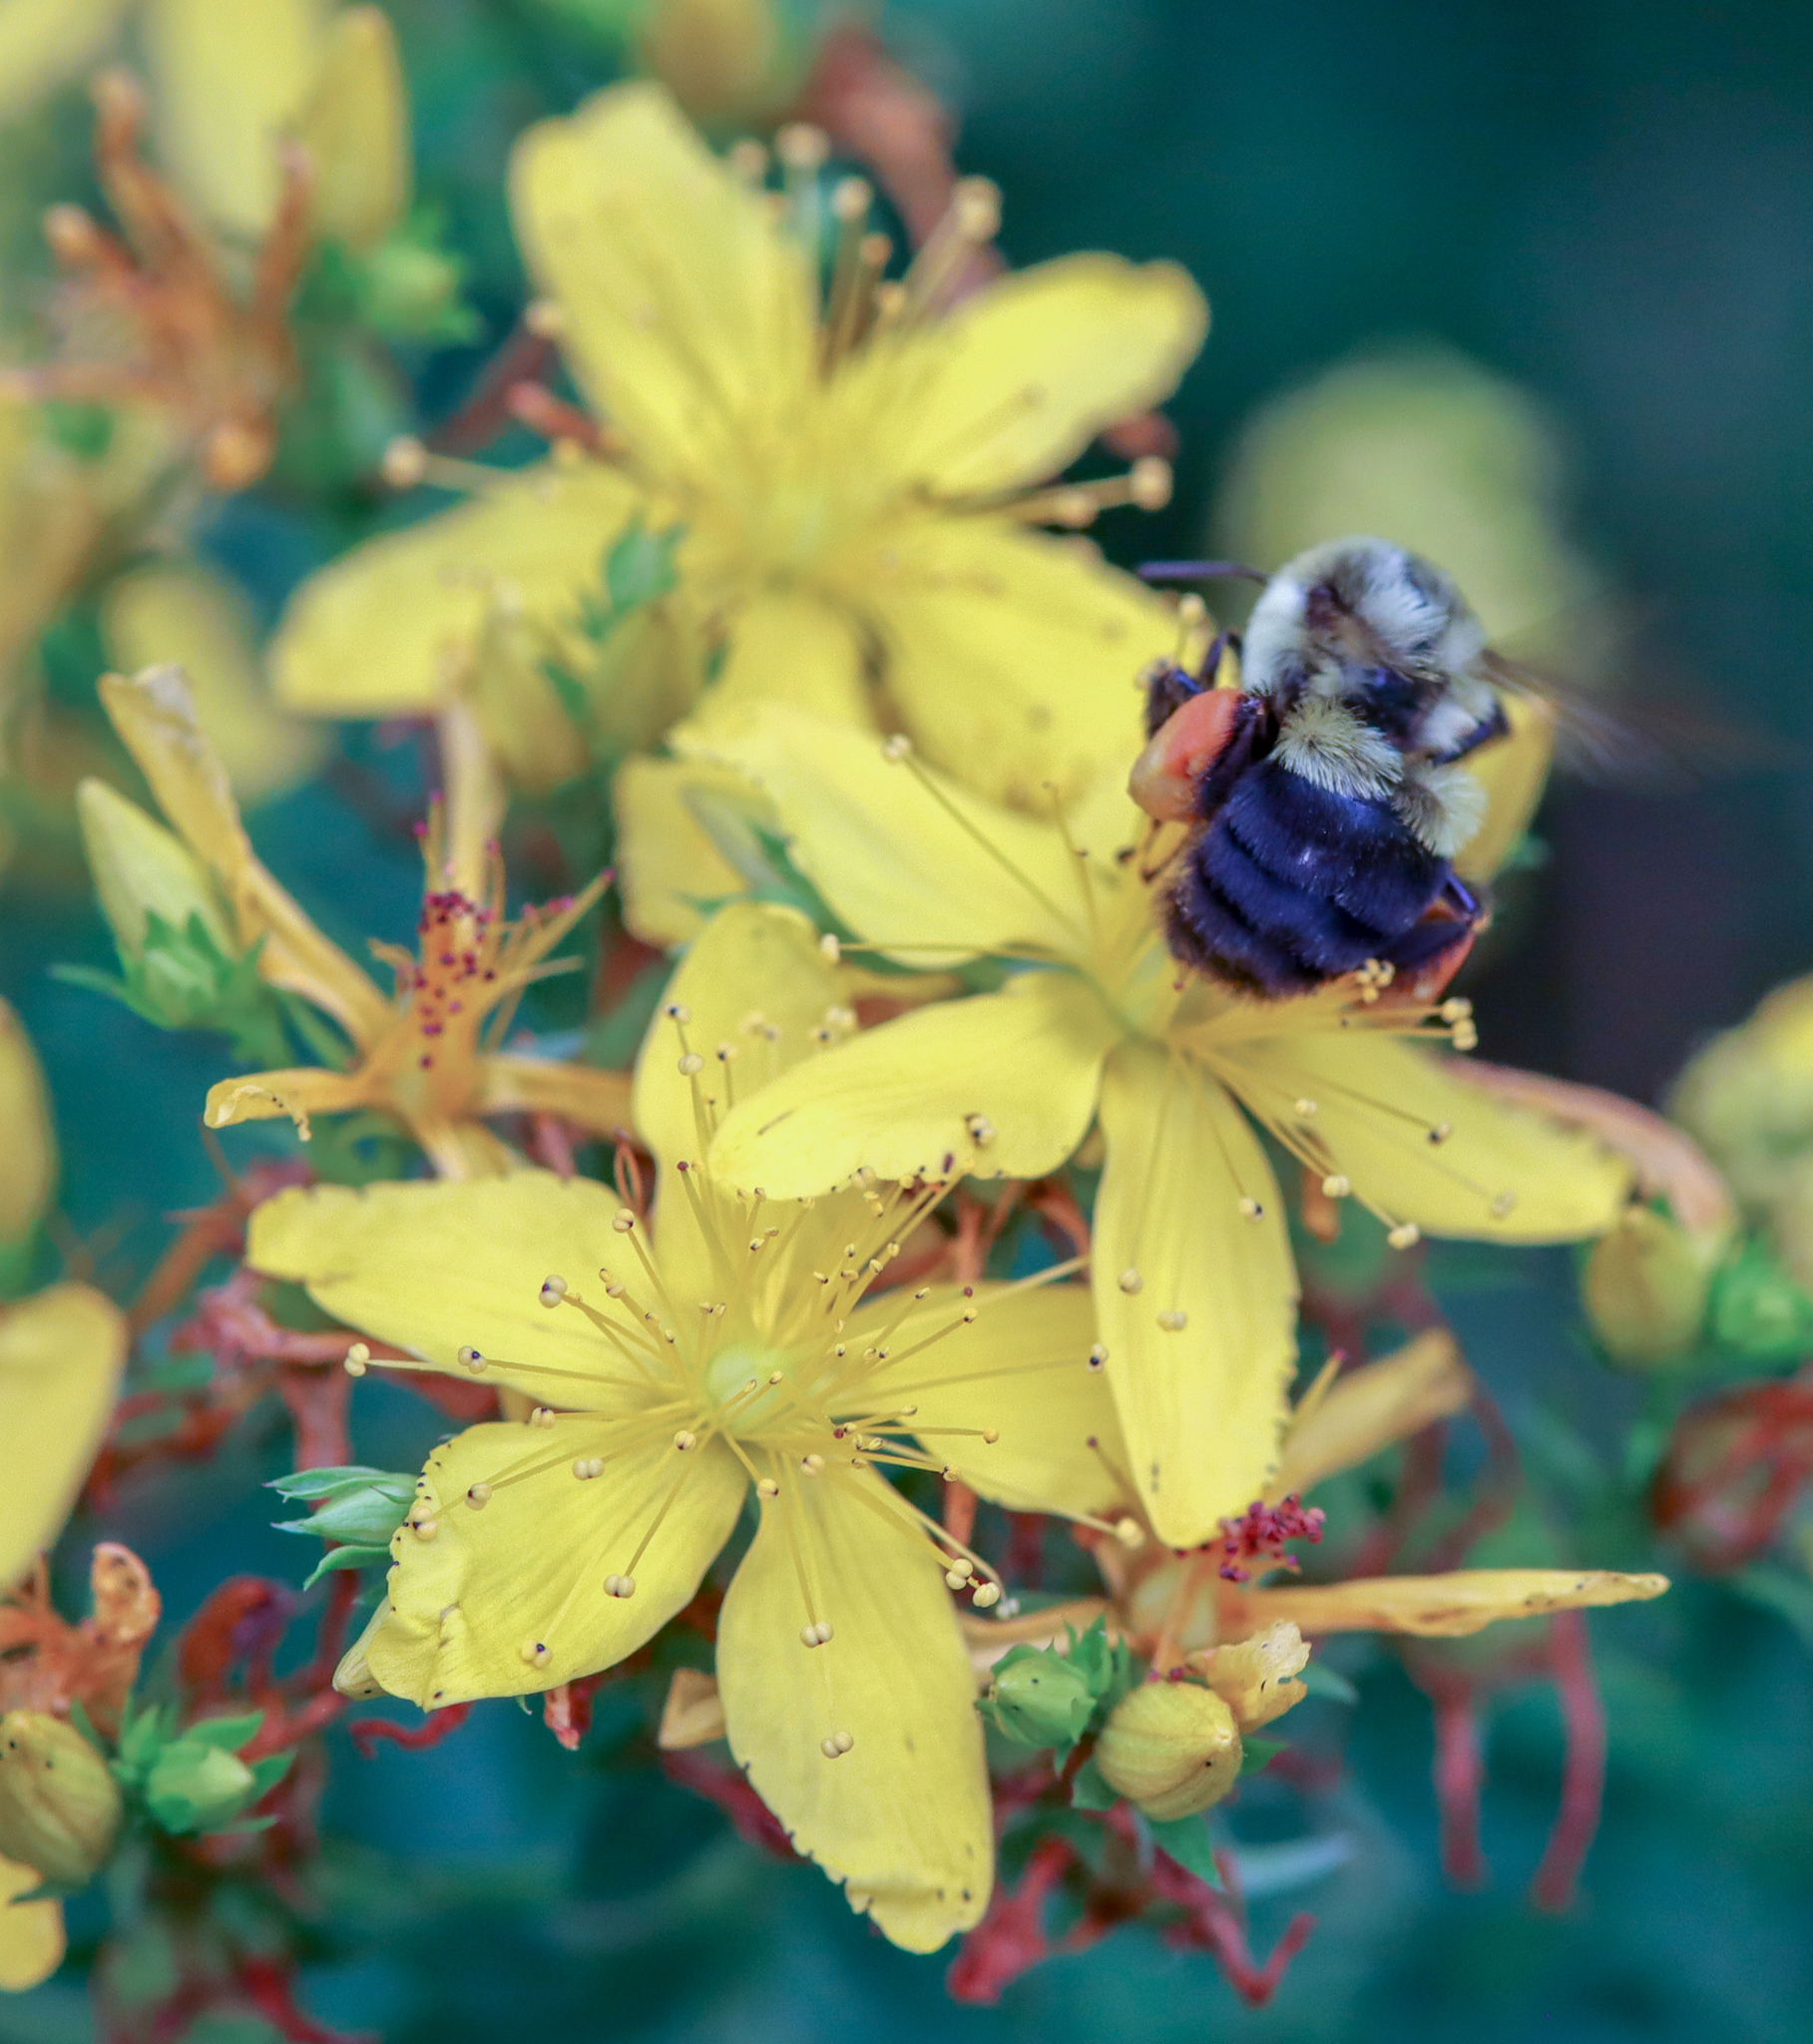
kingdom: Animalia
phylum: Arthropoda
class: Insecta
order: Hymenoptera
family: Apidae
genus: Bombus
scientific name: Bombus impatiens
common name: Common eastern bumble bee
